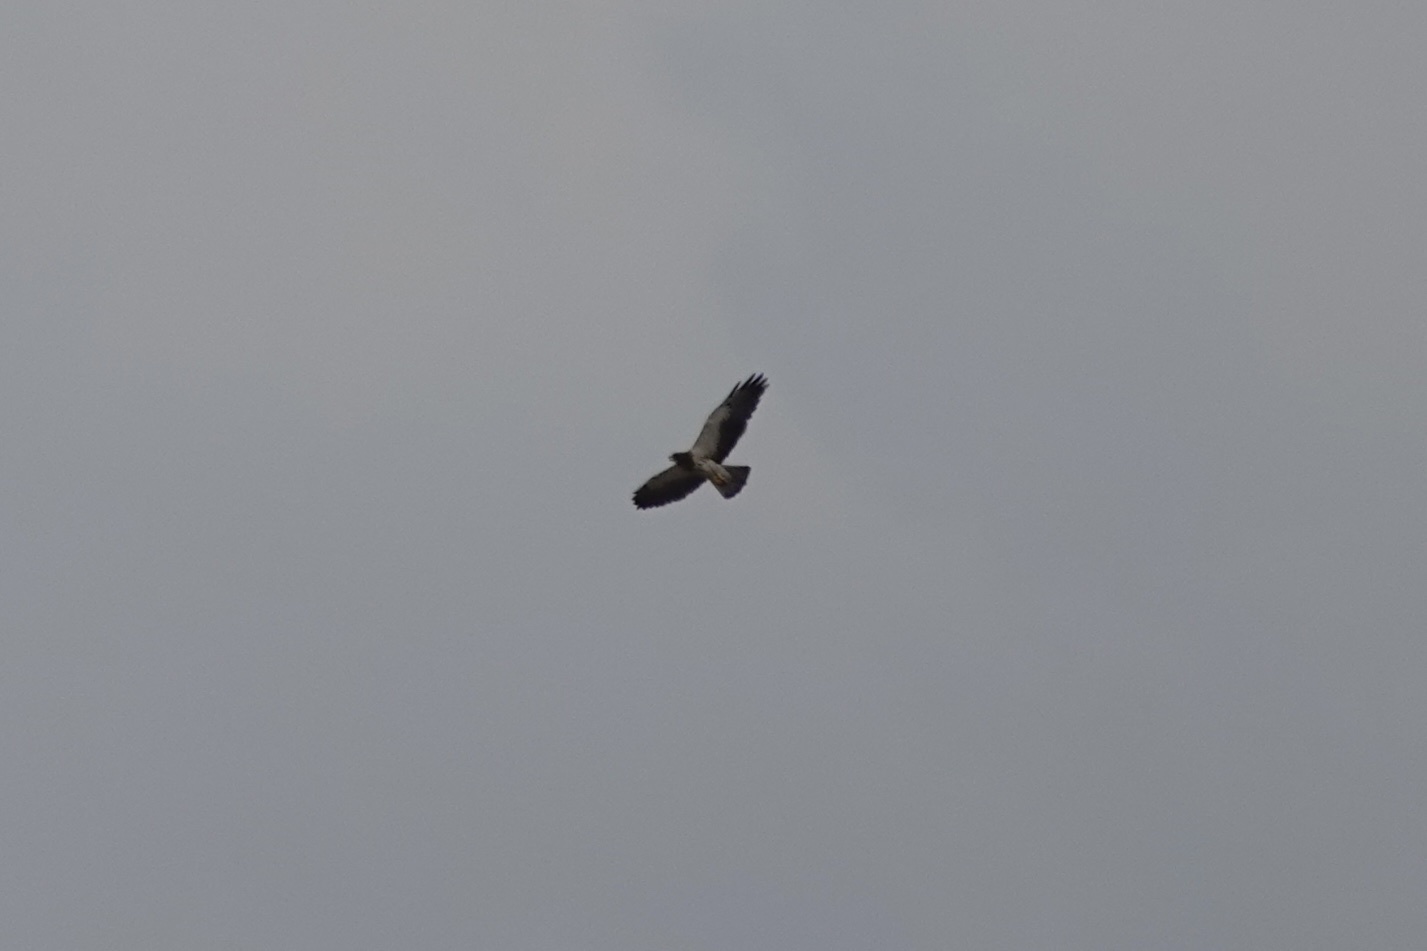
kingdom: Animalia
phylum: Chordata
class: Aves
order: Accipitriformes
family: Accipitridae
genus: Buteo
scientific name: Buteo swainsoni
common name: Swainson's hawk
